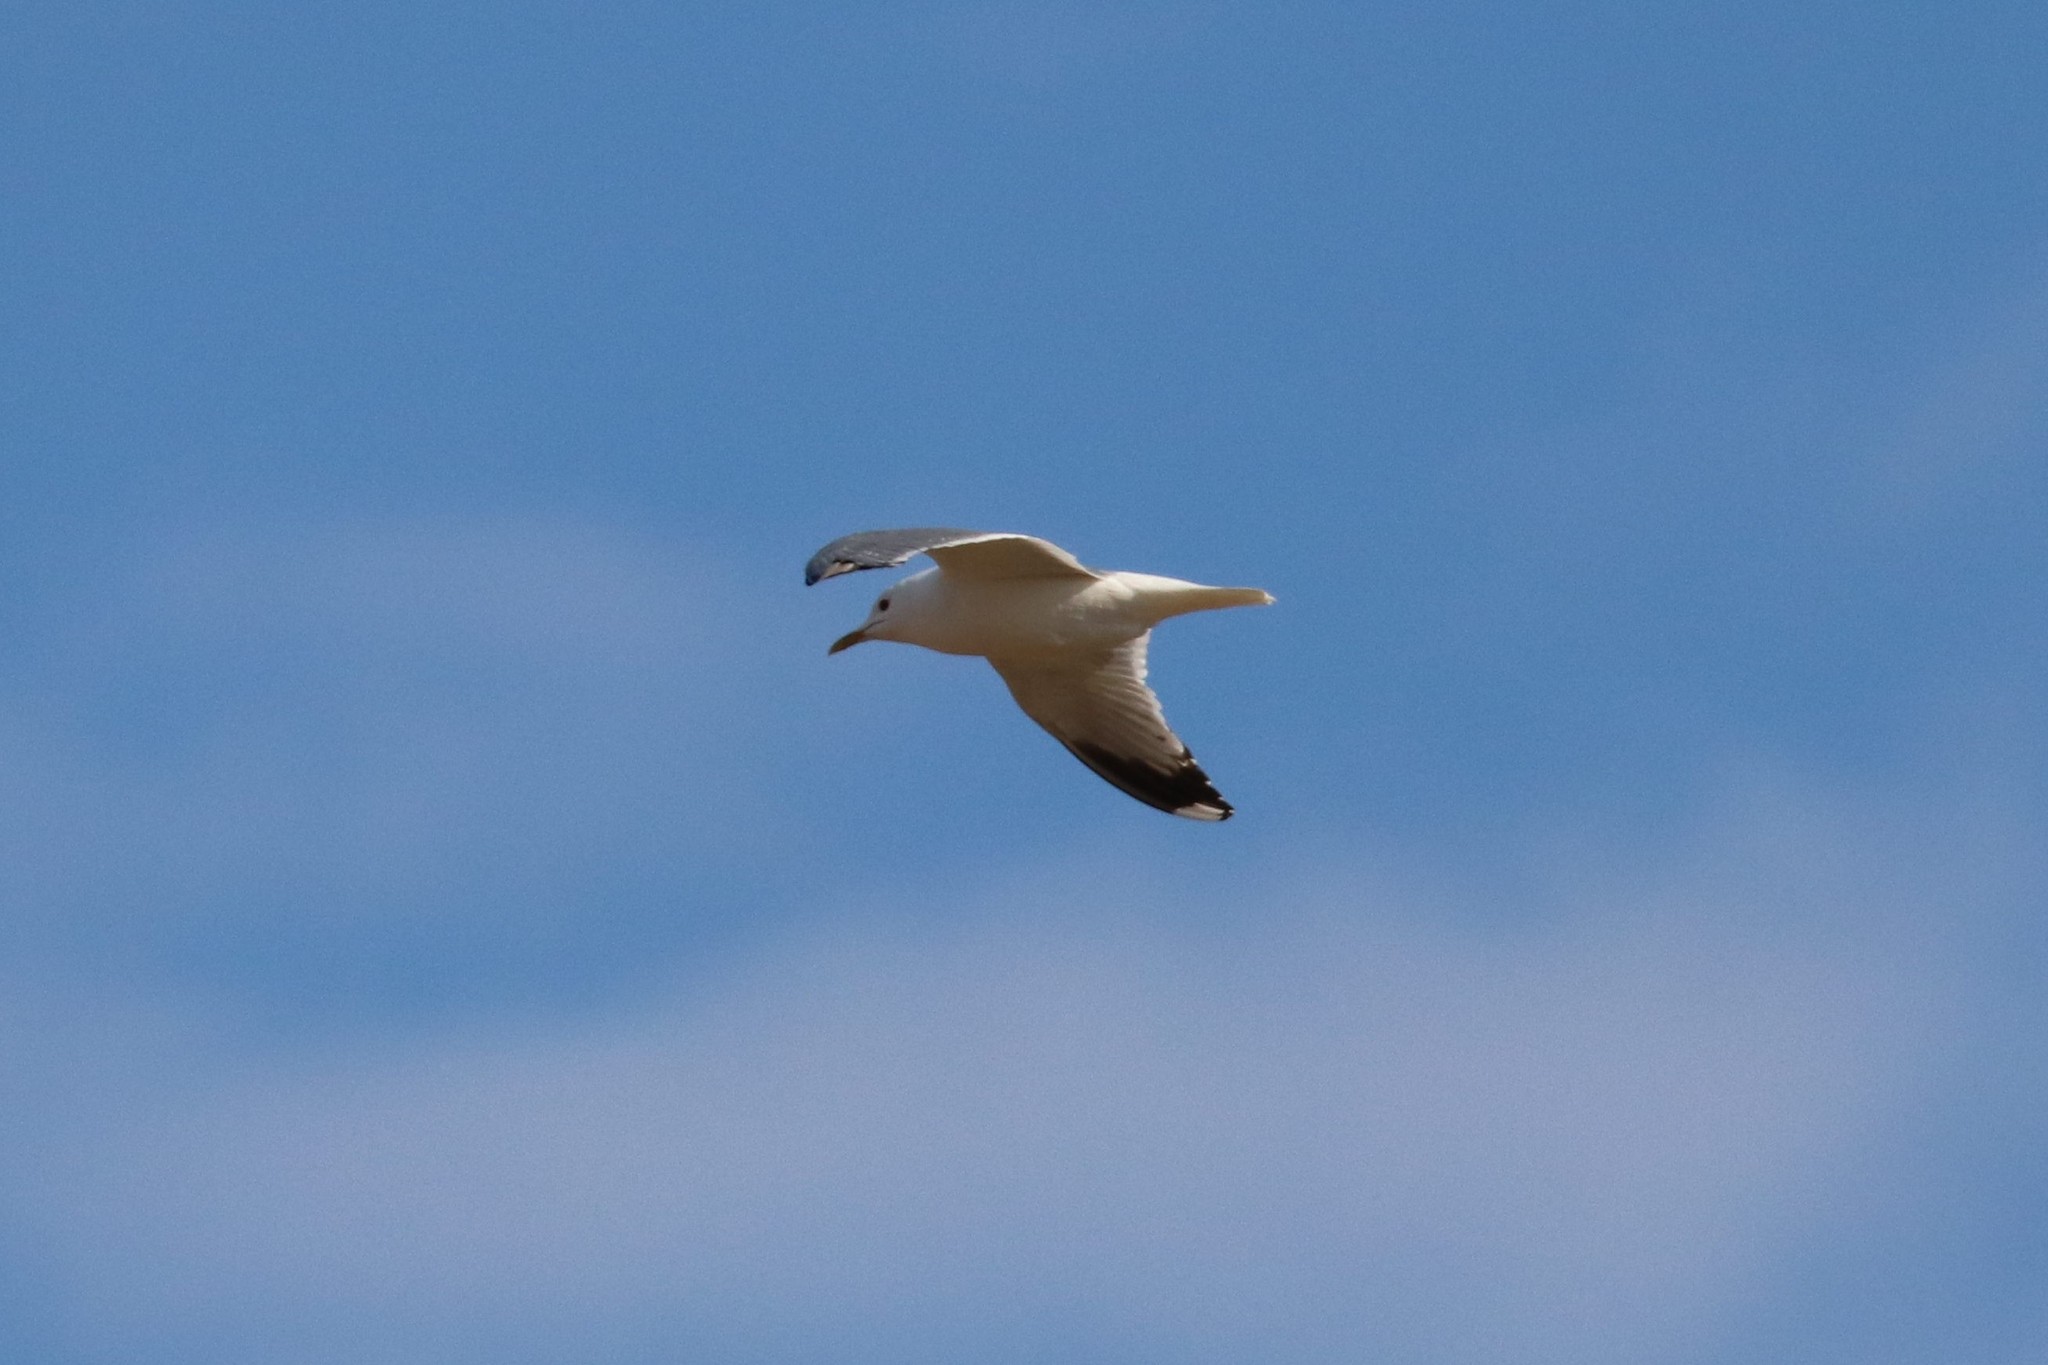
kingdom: Animalia
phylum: Chordata
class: Aves
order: Charadriiformes
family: Laridae
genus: Larus
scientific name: Larus canus
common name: Mew gull
